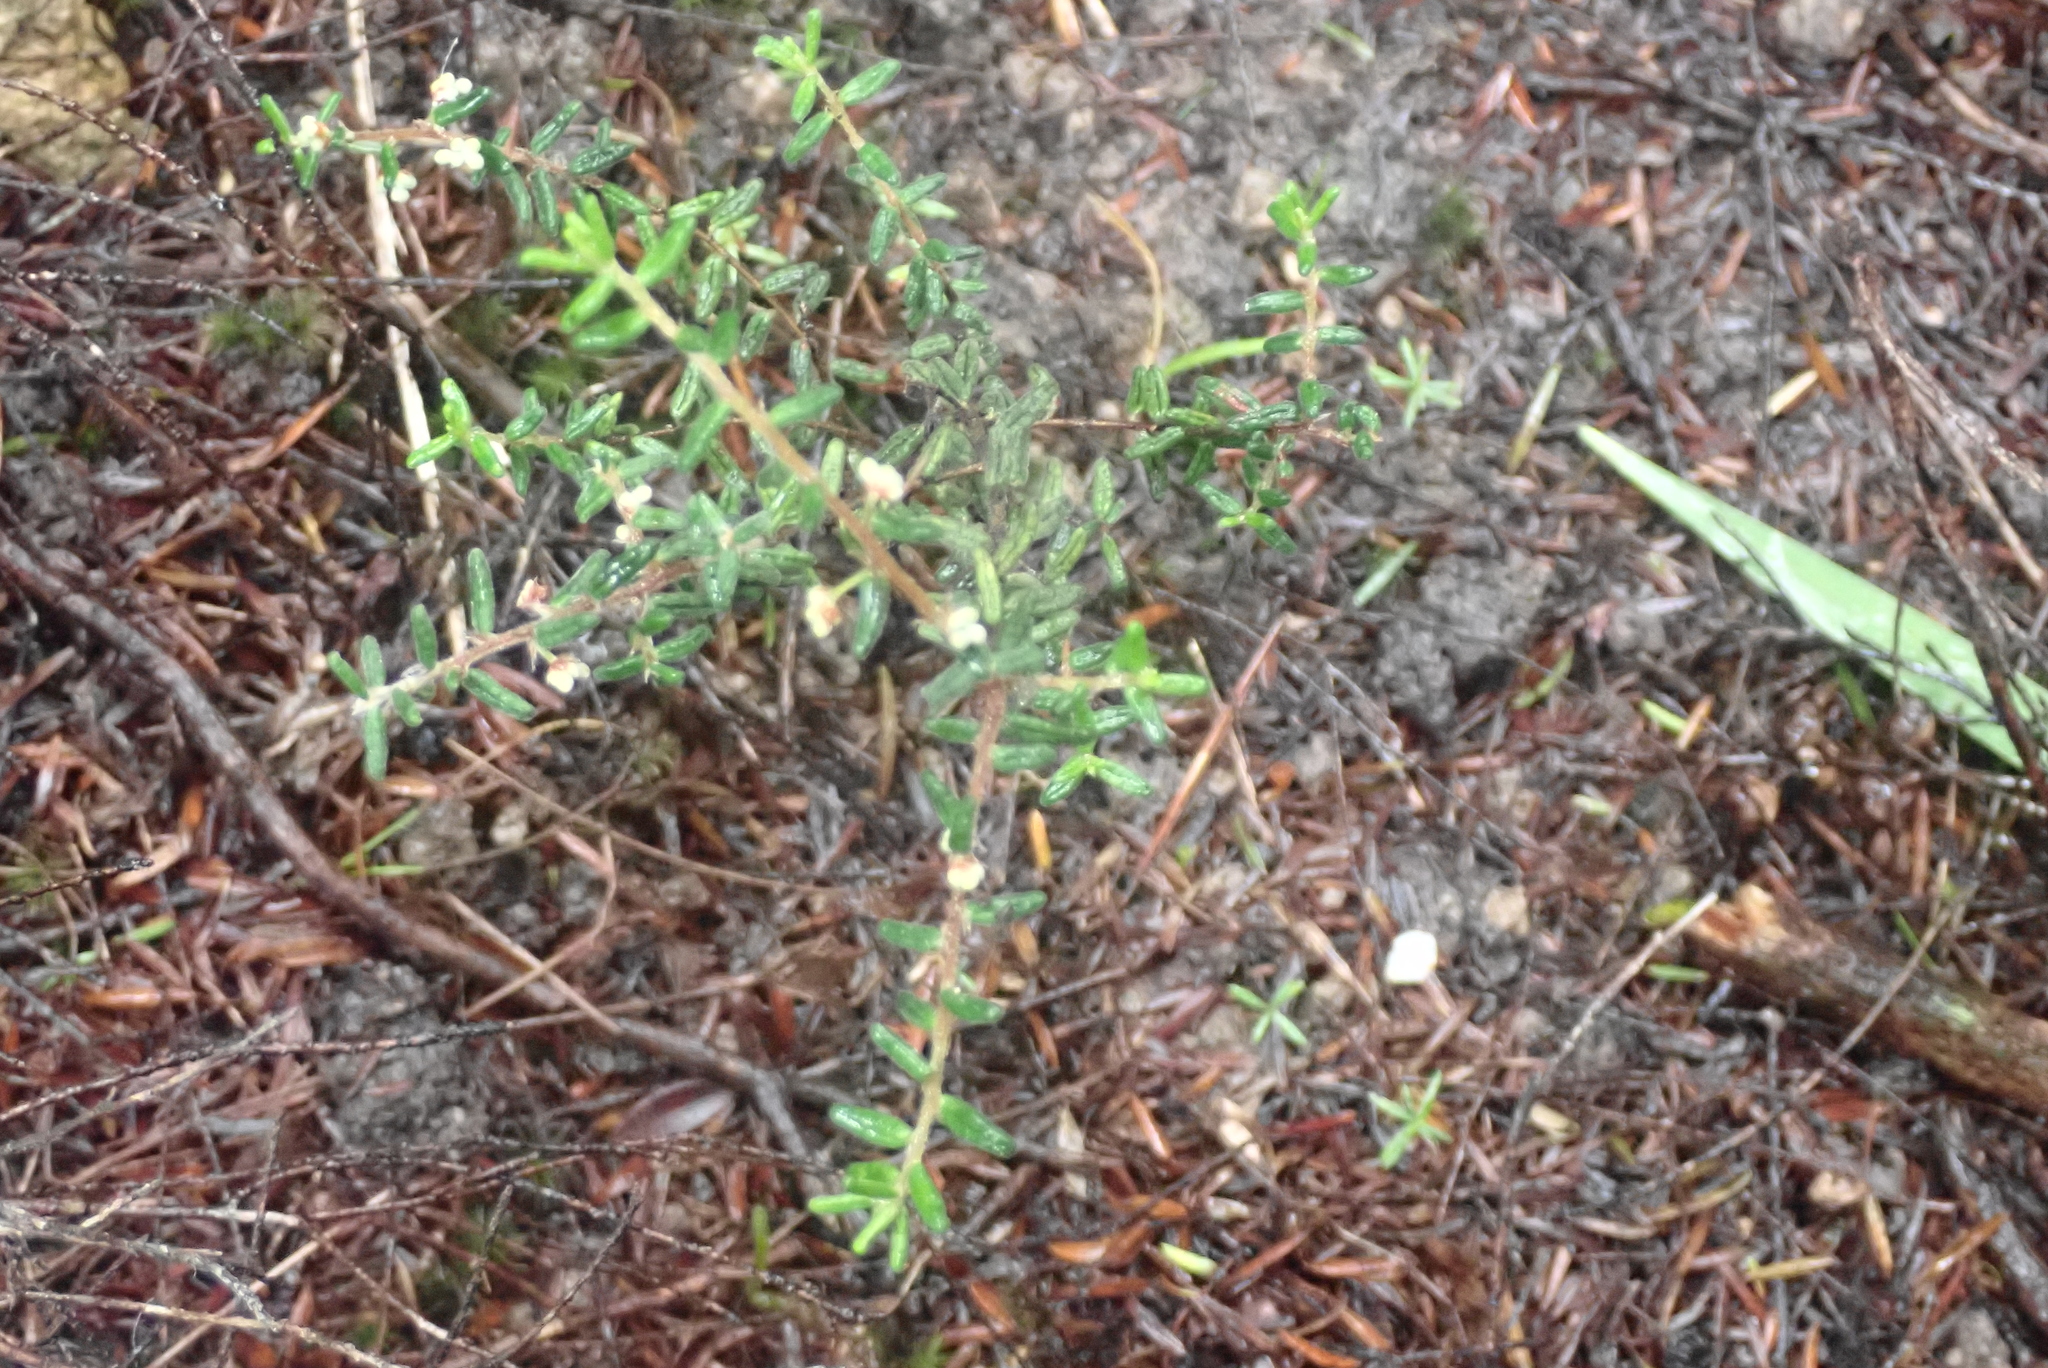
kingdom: Plantae
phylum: Tracheophyta
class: Magnoliopsida
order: Rosales
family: Rhamnaceae
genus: Pomaderris
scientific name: Pomaderris amoena
